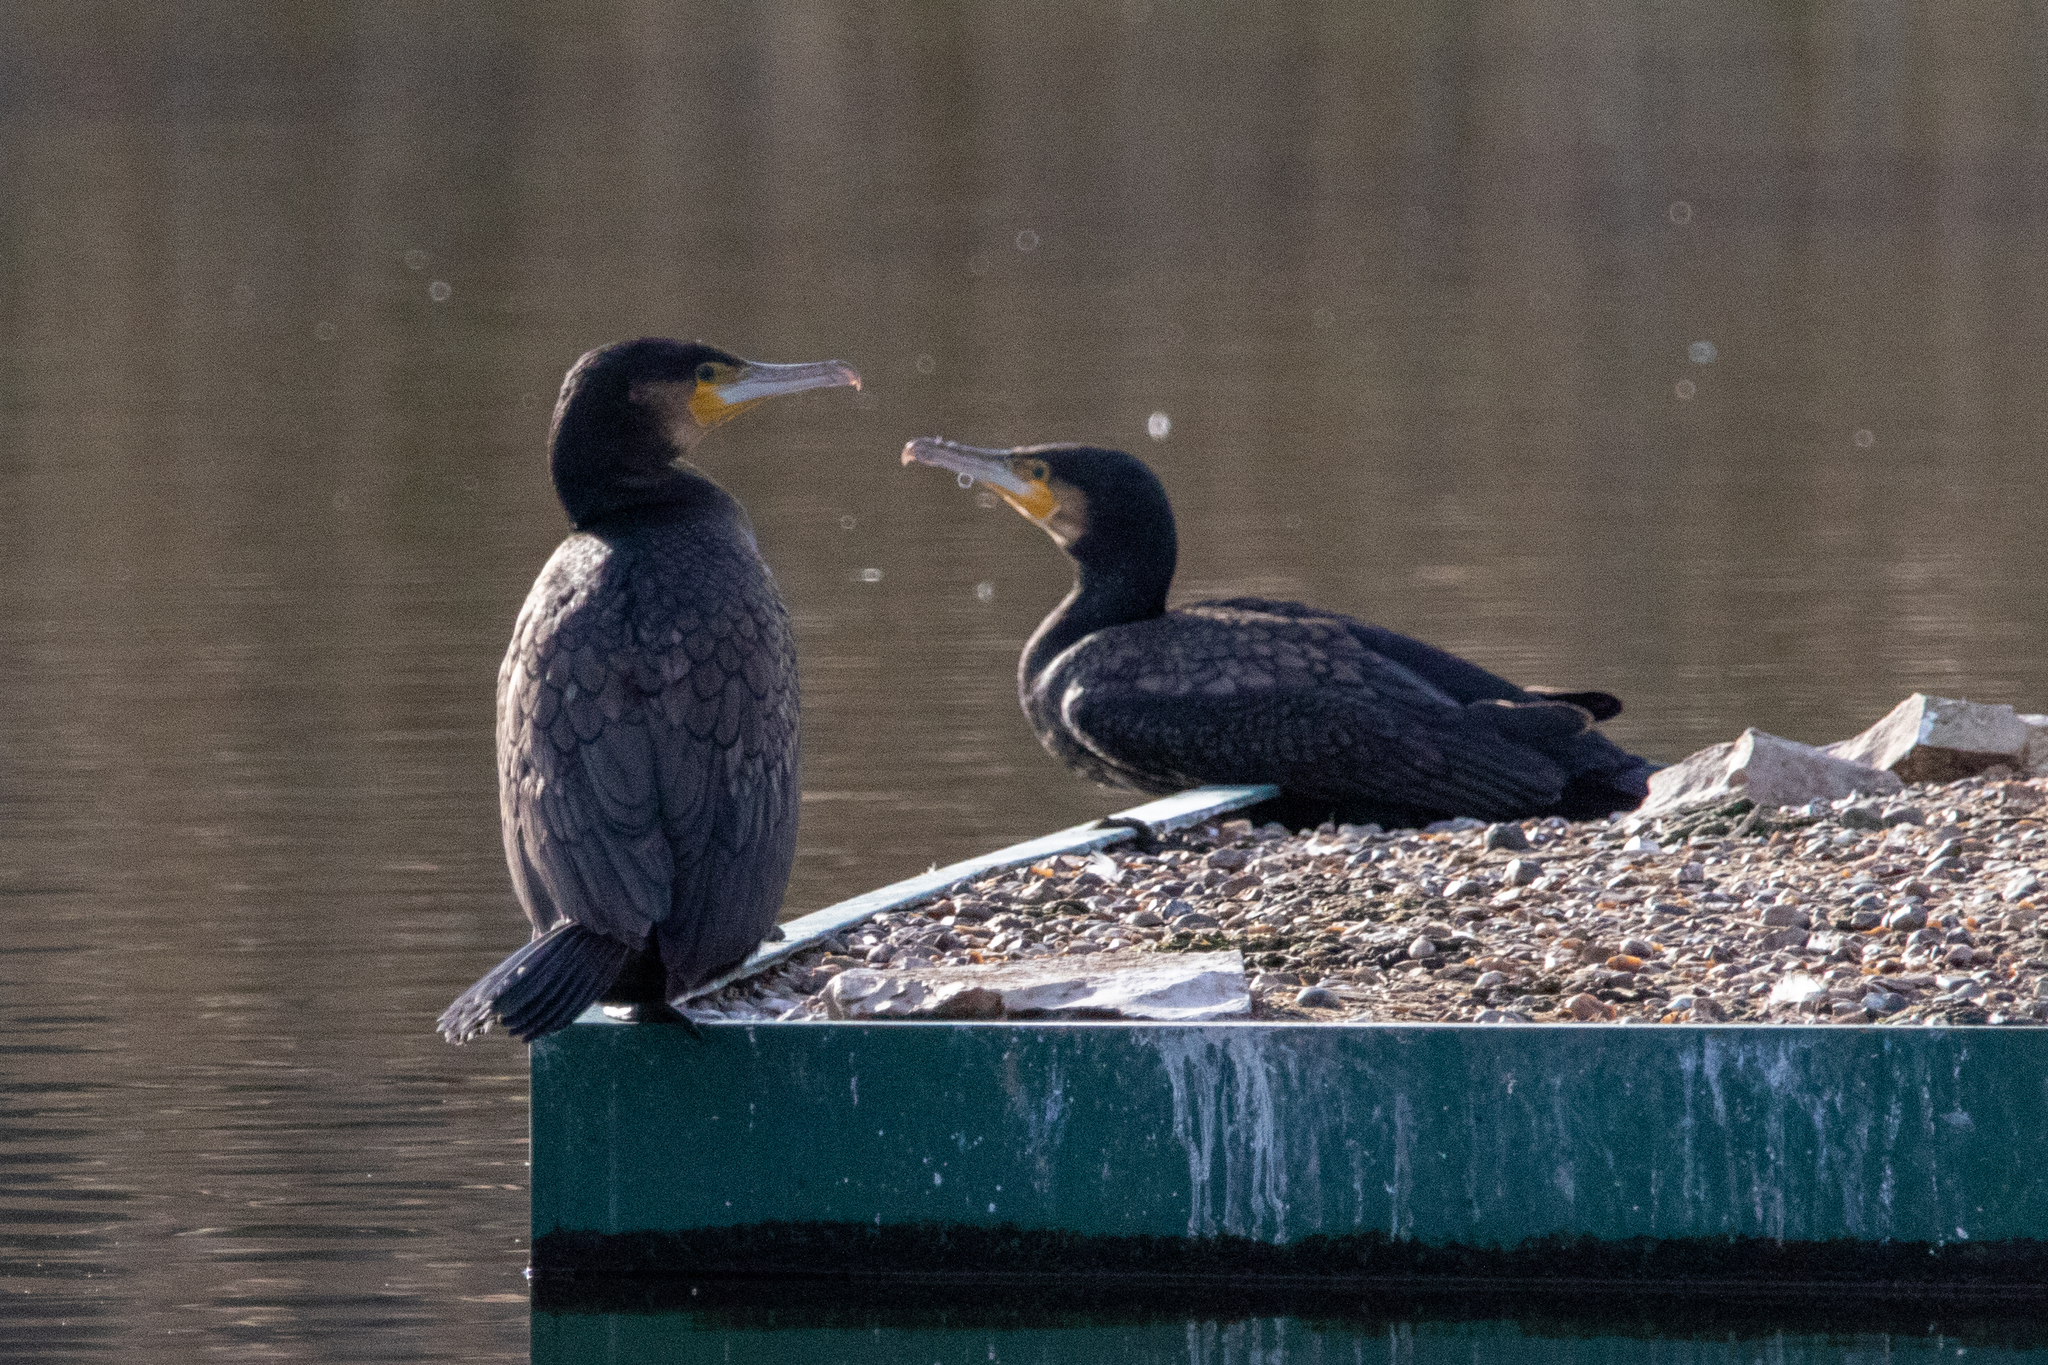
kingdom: Animalia
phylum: Chordata
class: Aves
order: Suliformes
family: Phalacrocoracidae
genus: Phalacrocorax
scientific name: Phalacrocorax carbo
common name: Great cormorant
